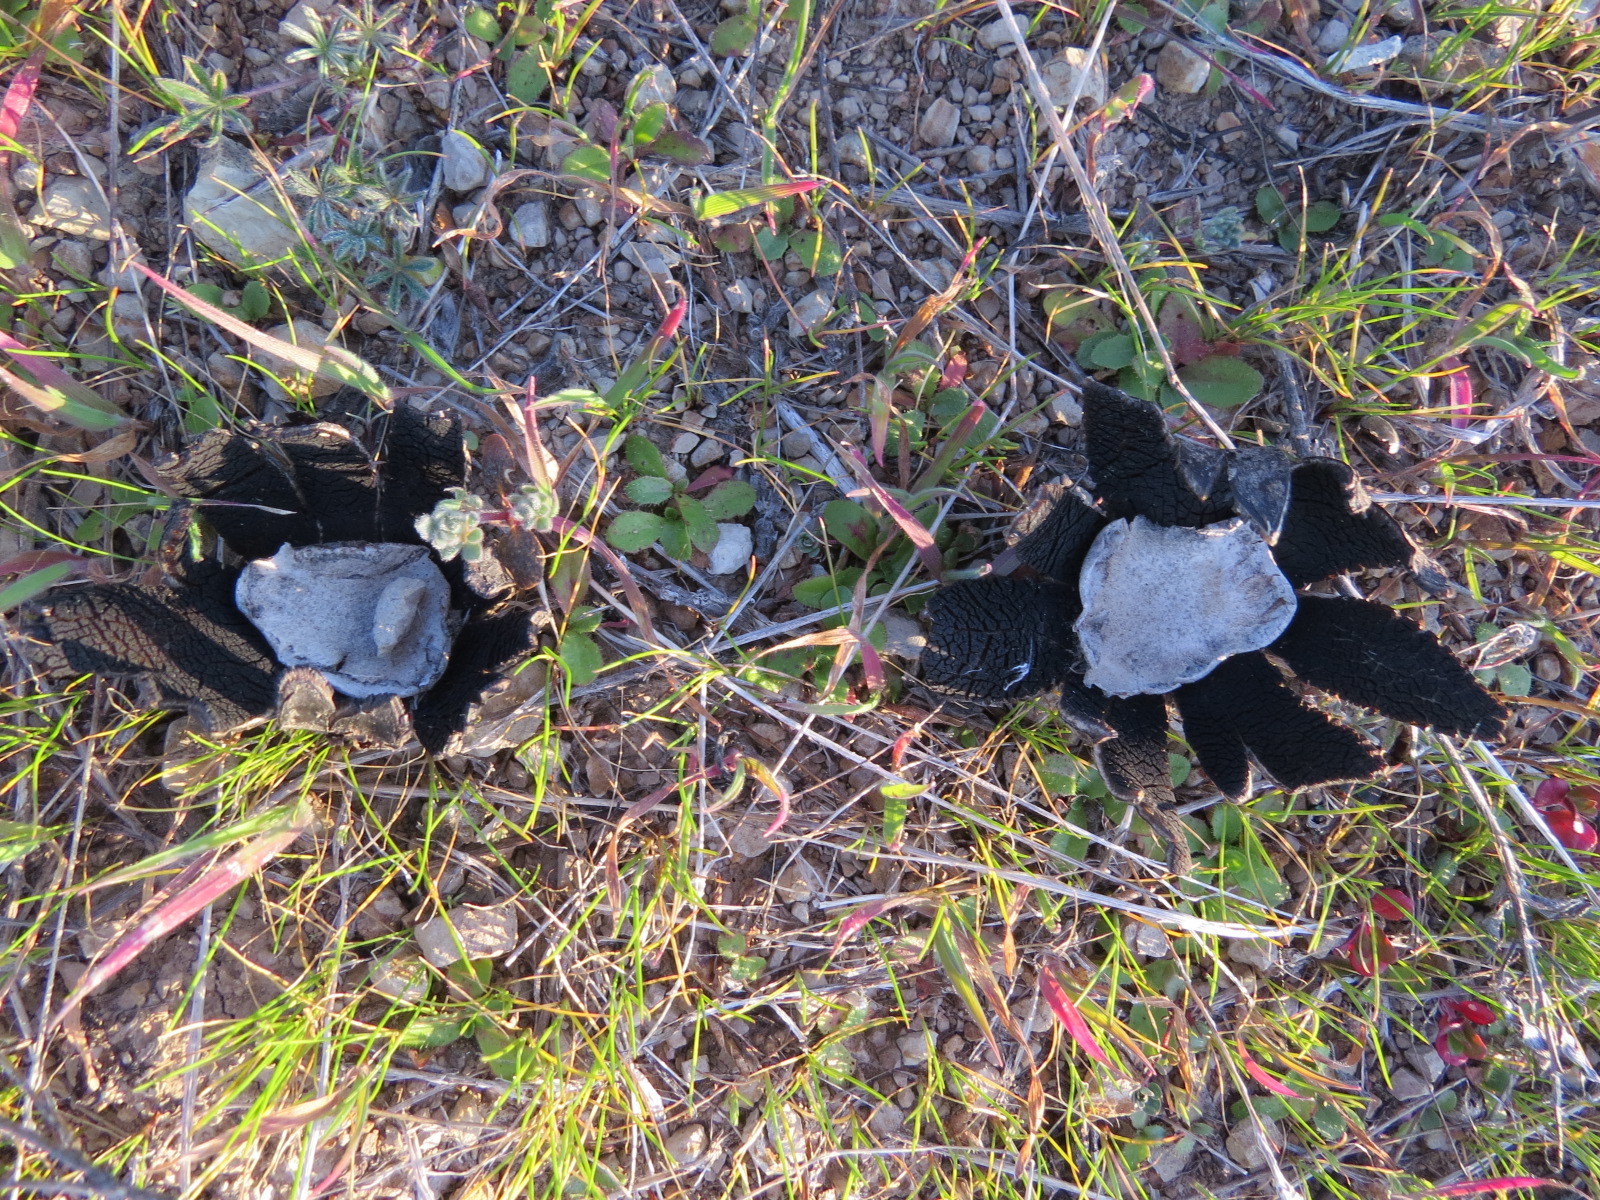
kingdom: Fungi
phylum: Basidiomycota
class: Agaricomycetes
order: Boletales
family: Diplocystidiaceae
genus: Astraeus
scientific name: Astraeus hygrometricus
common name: Barometer earthstar
